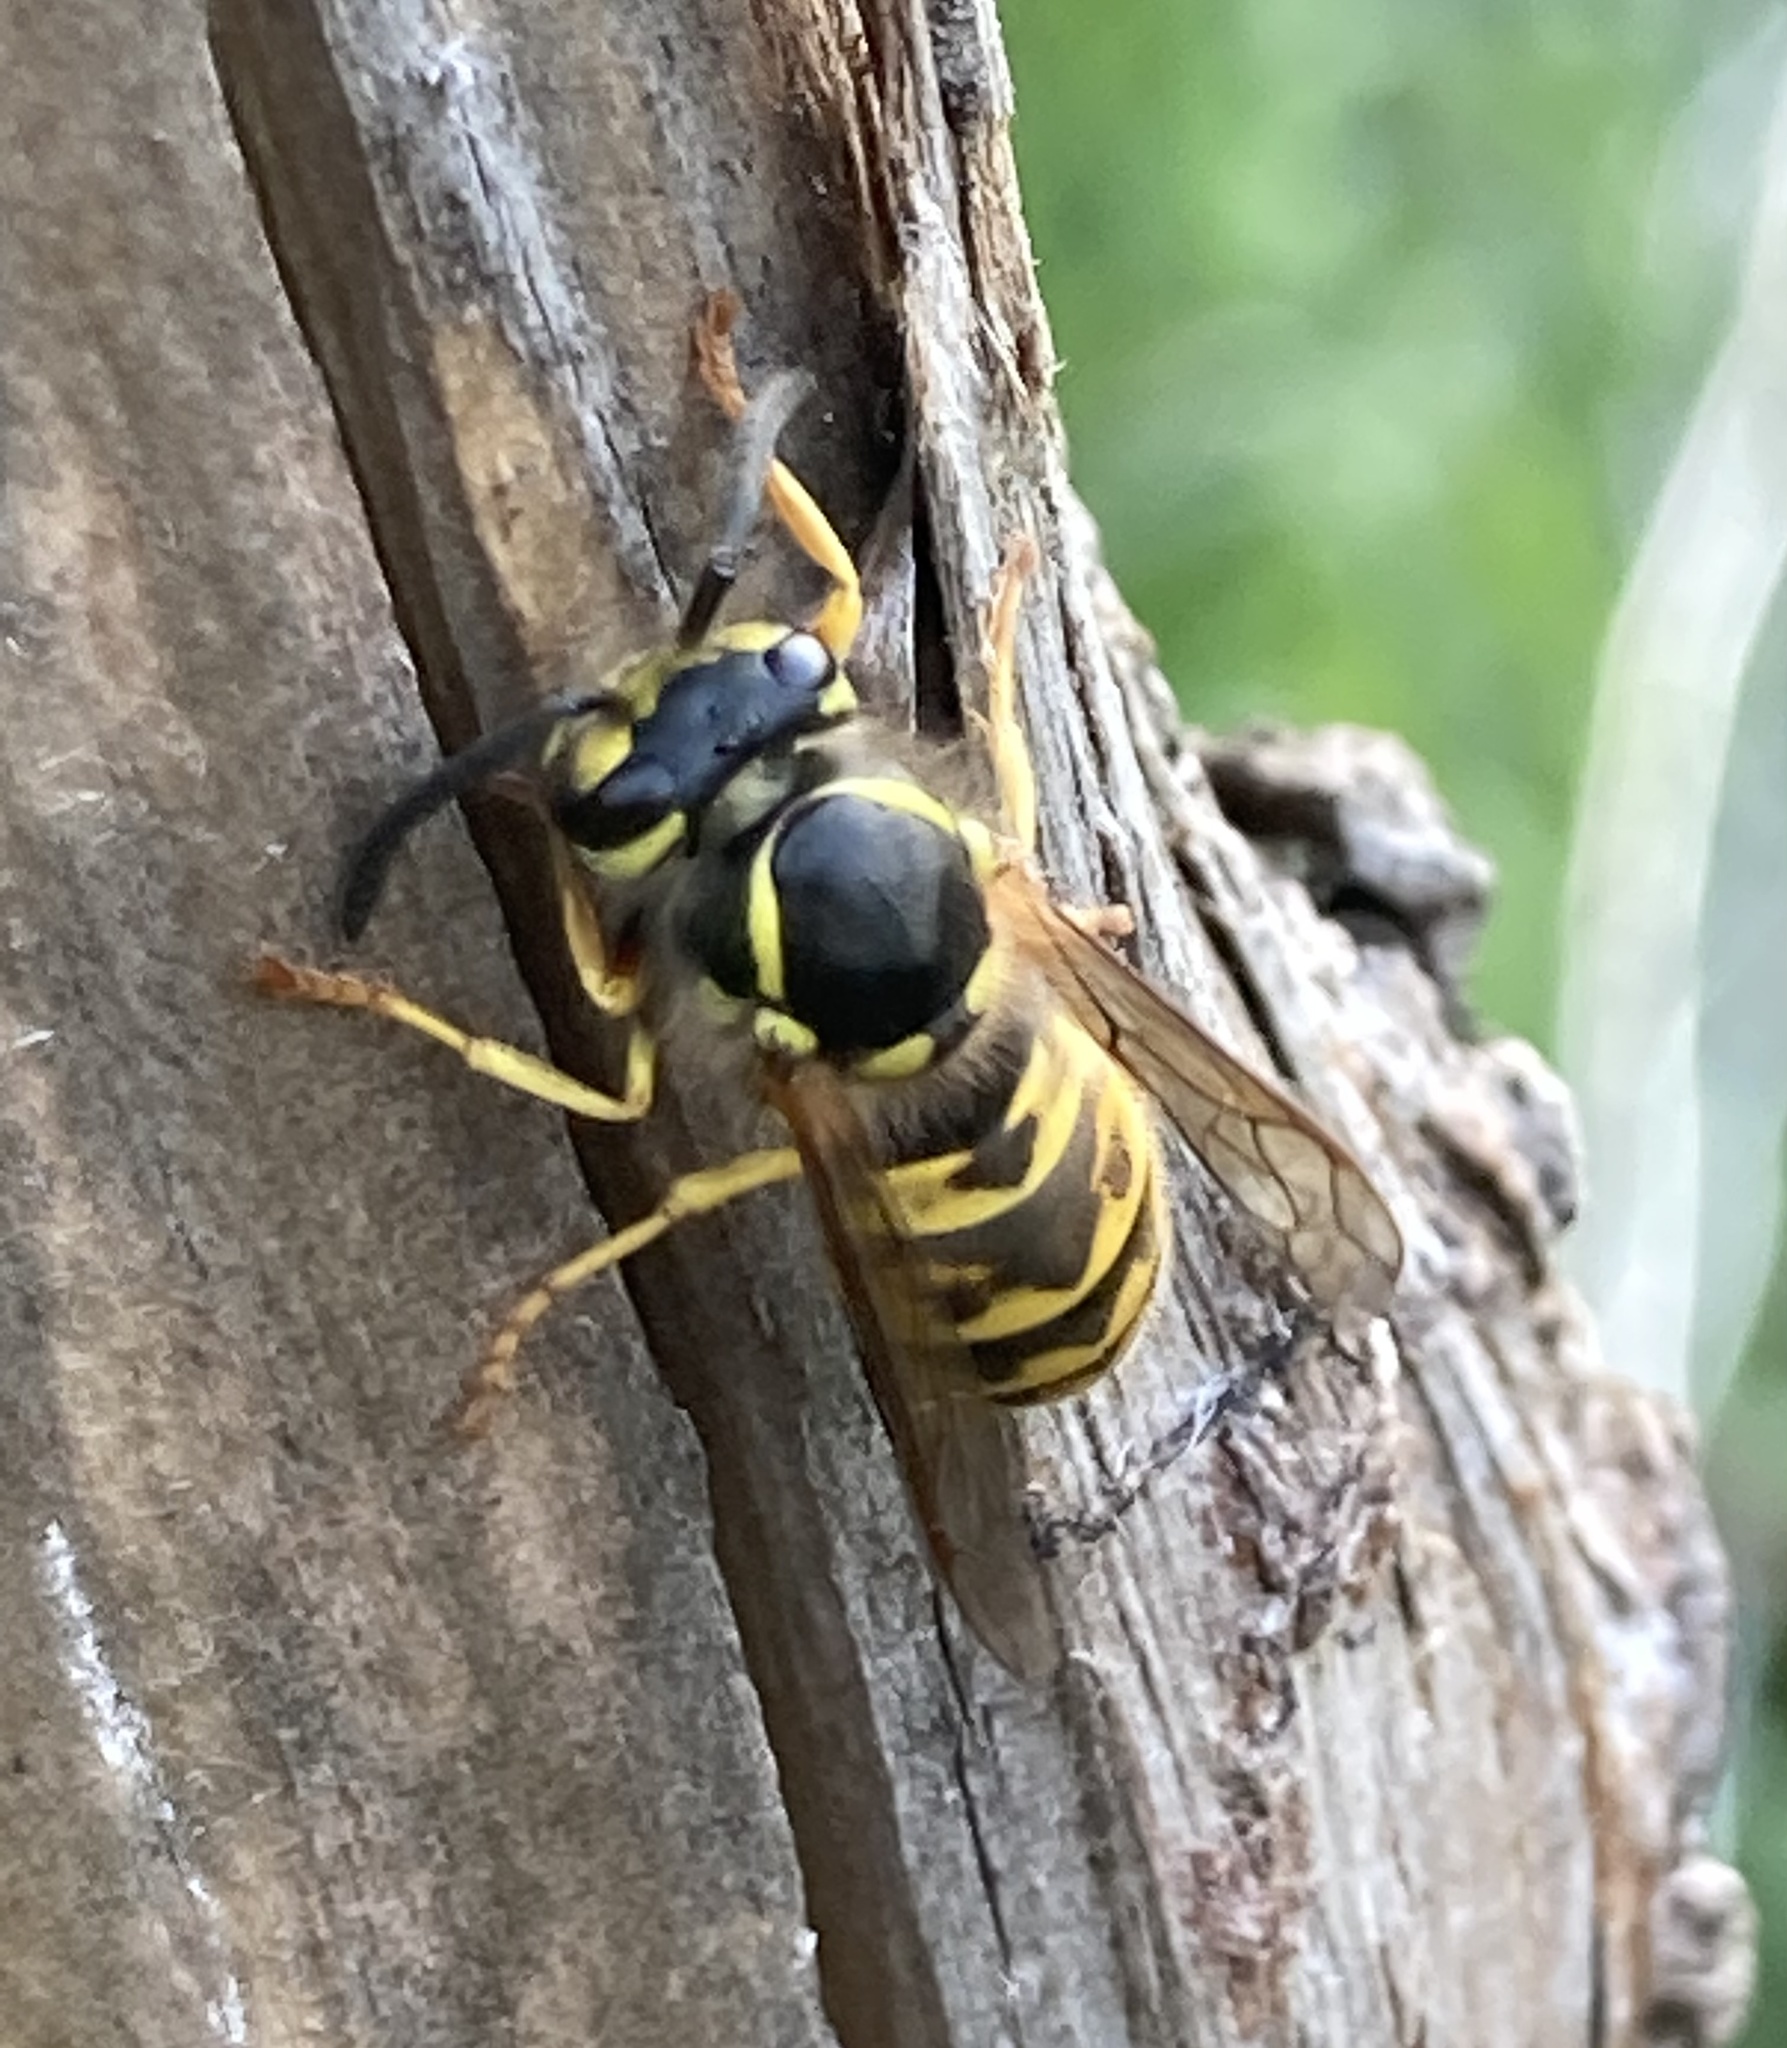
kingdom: Animalia
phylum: Arthropoda
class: Insecta
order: Hymenoptera
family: Vespidae
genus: Vespula
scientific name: Vespula germanica
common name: German wasp
